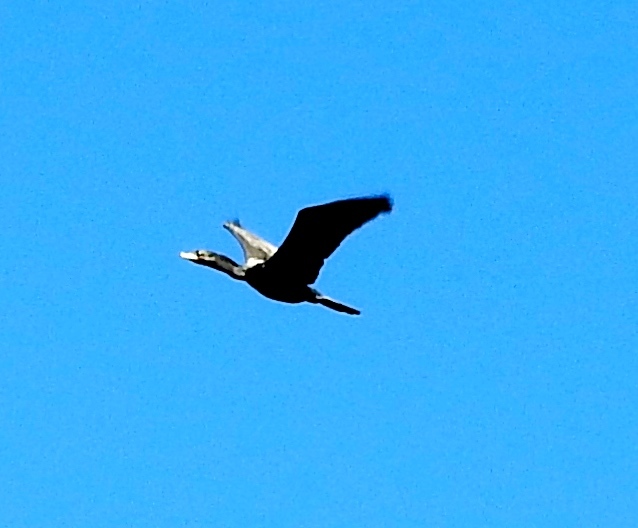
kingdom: Animalia
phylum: Chordata
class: Aves
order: Suliformes
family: Phalacrocoracidae
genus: Phalacrocorax
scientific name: Phalacrocorax brasilianus
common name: Neotropic cormorant
